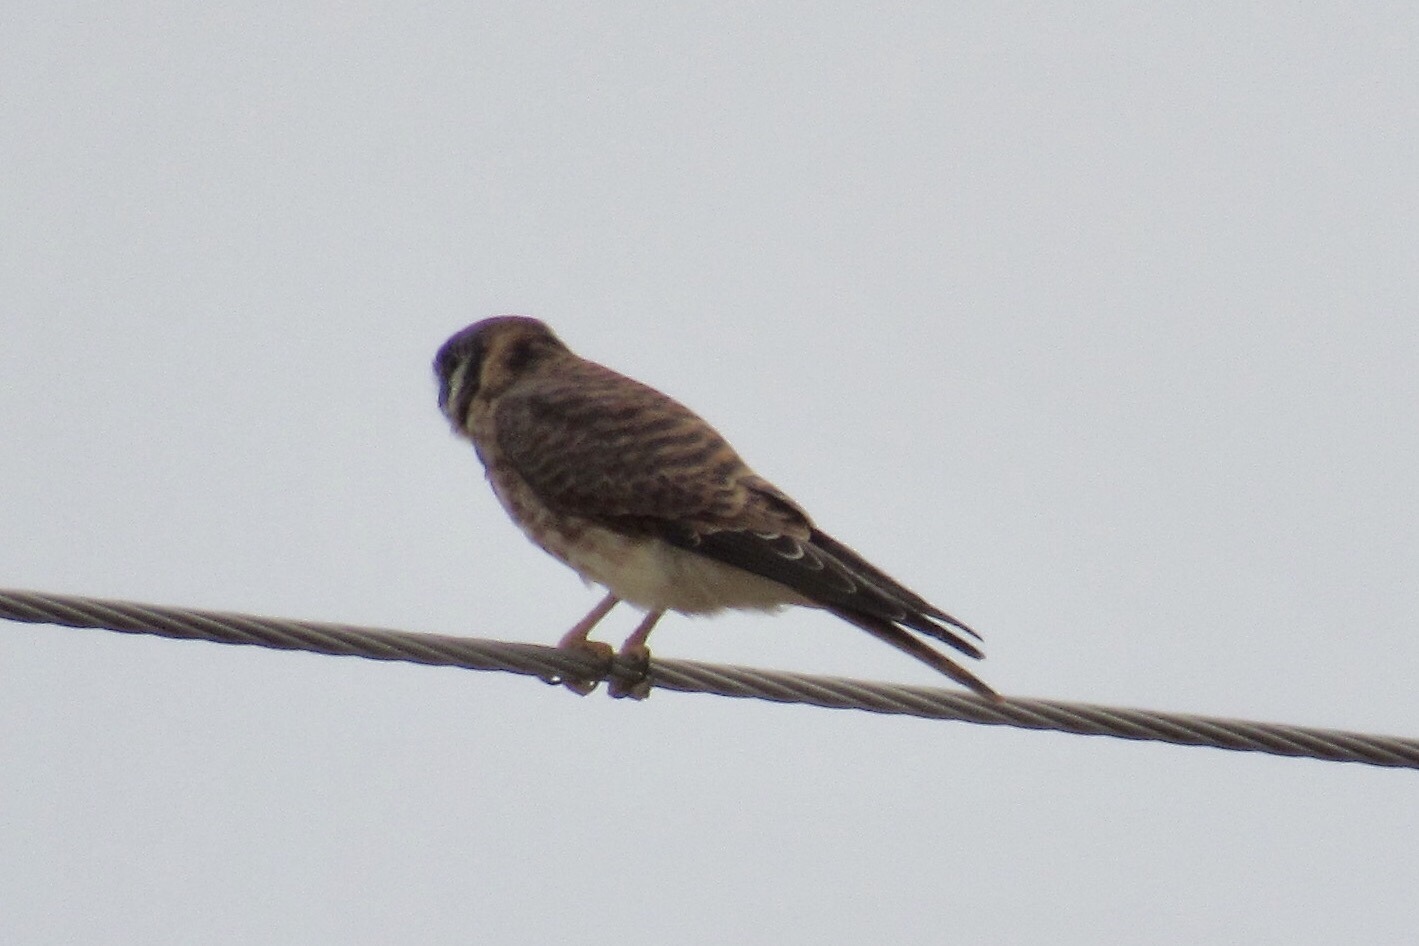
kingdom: Animalia
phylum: Chordata
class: Aves
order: Falconiformes
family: Falconidae
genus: Falco
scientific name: Falco sparverius
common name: American kestrel
